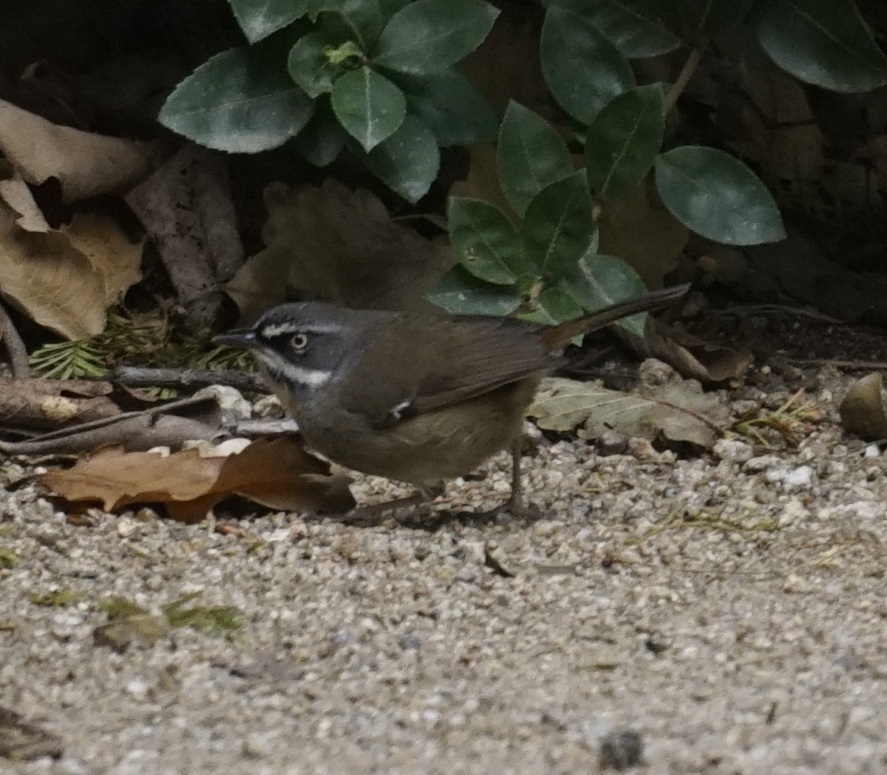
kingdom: Animalia
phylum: Chordata
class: Aves
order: Passeriformes
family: Acanthizidae
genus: Sericornis
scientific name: Sericornis frontalis
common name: White-browed scrubwren
